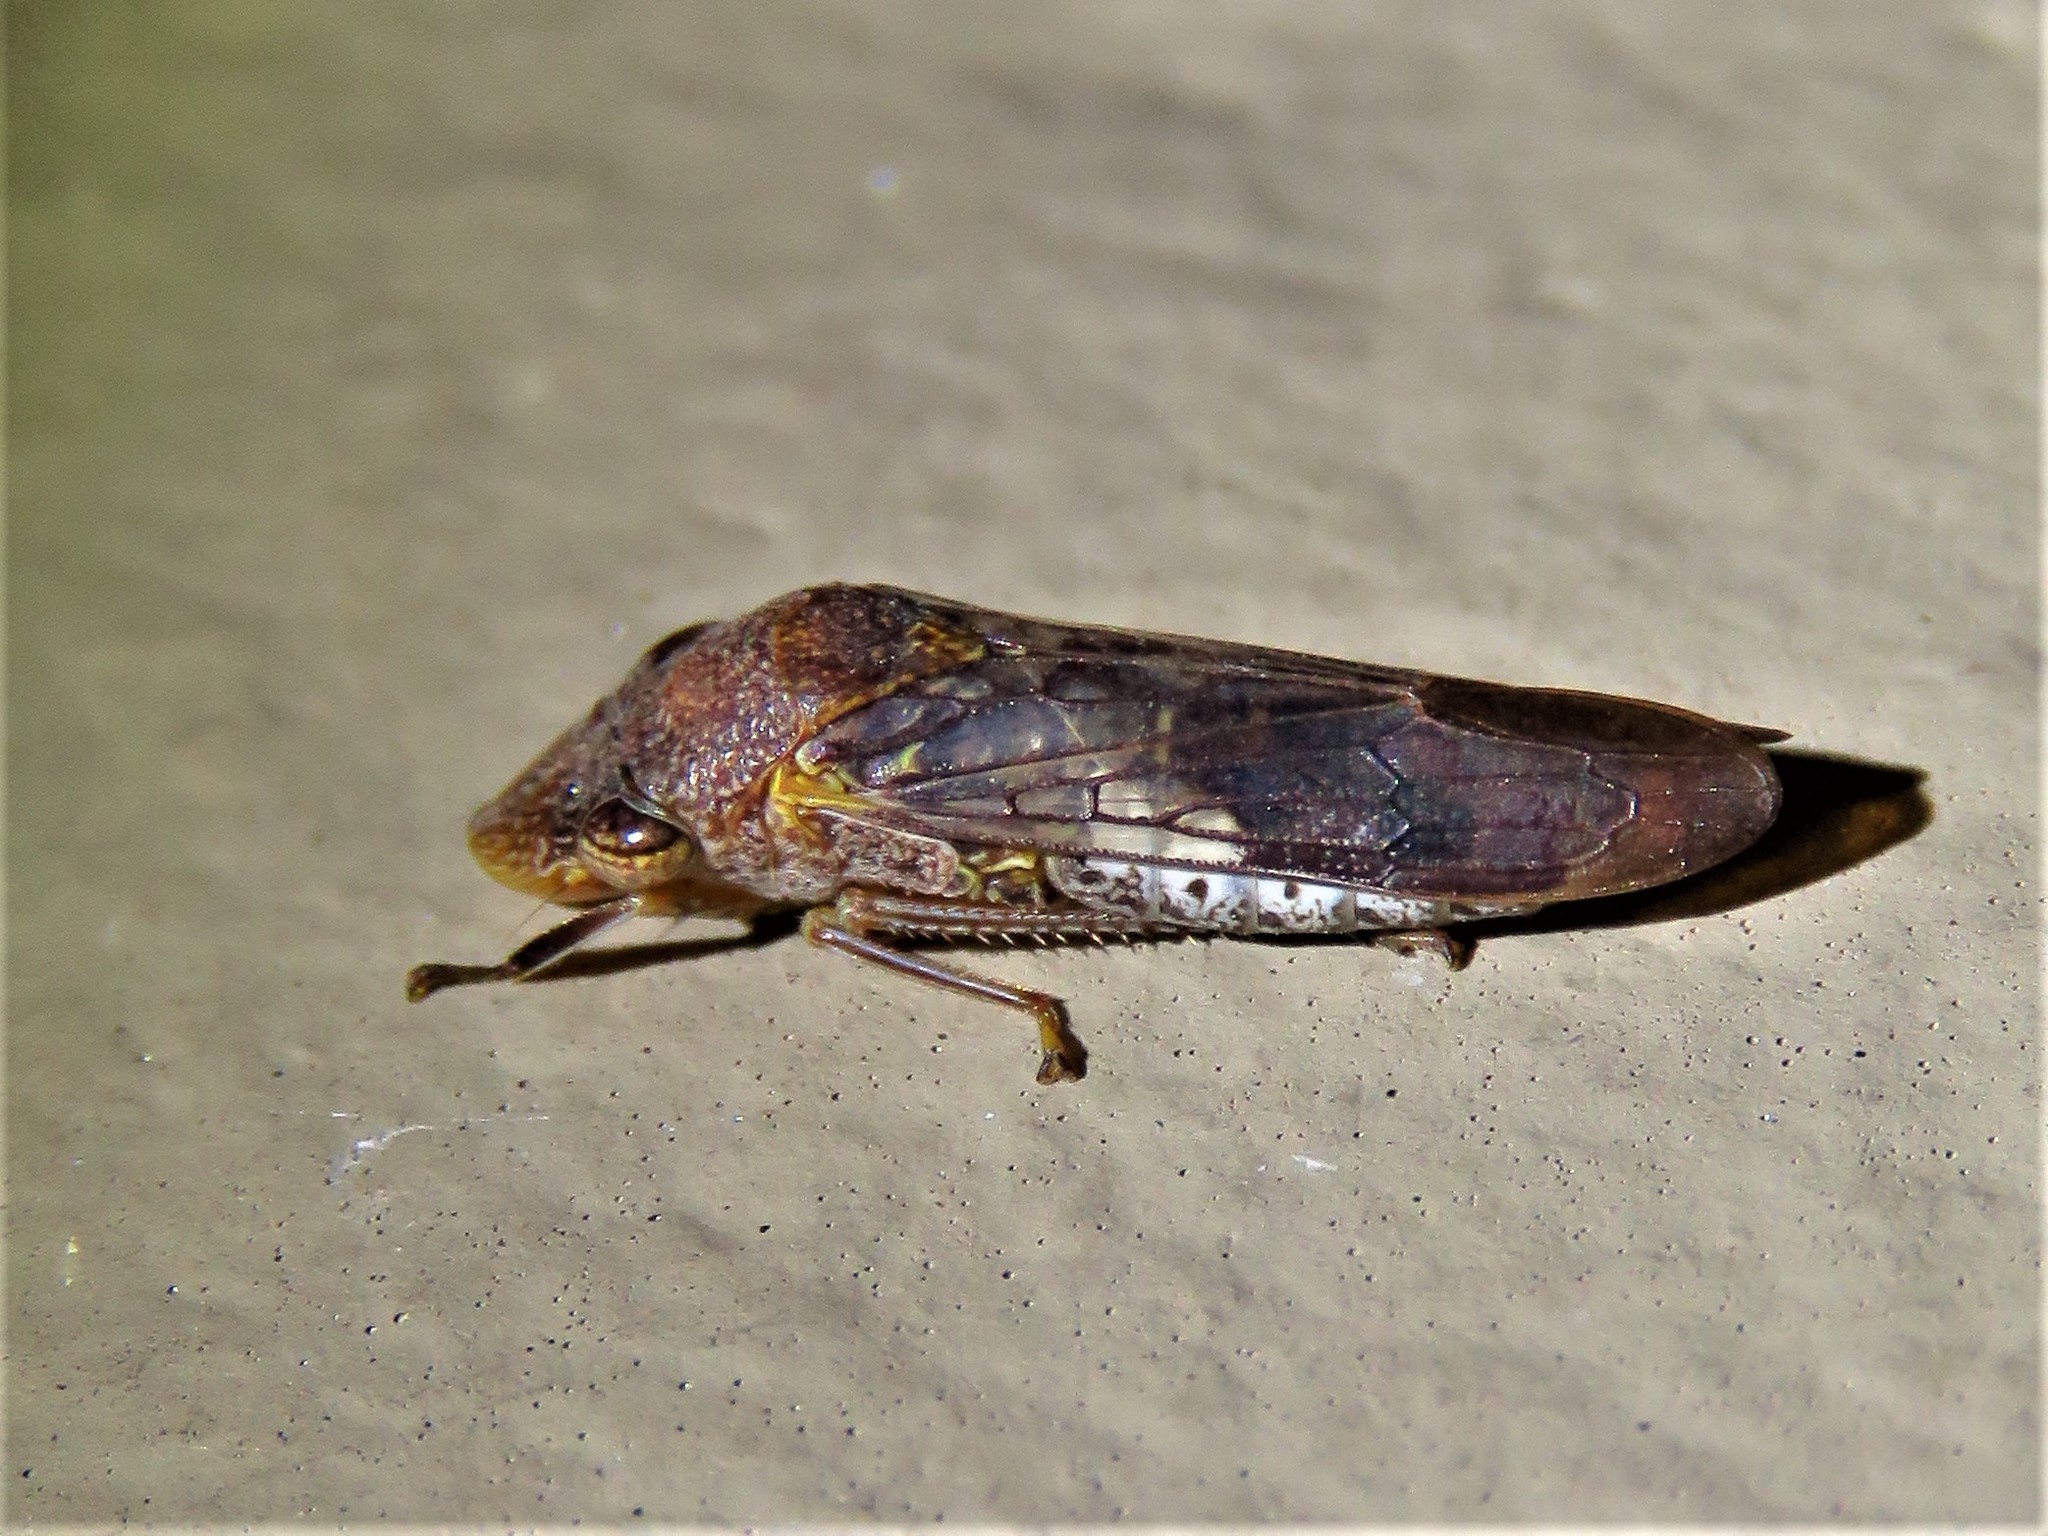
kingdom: Animalia
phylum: Arthropoda
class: Insecta
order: Hemiptera
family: Cicadellidae
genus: Homalodisca
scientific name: Homalodisca vitripennis
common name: Glassy-winged sharpshooter
